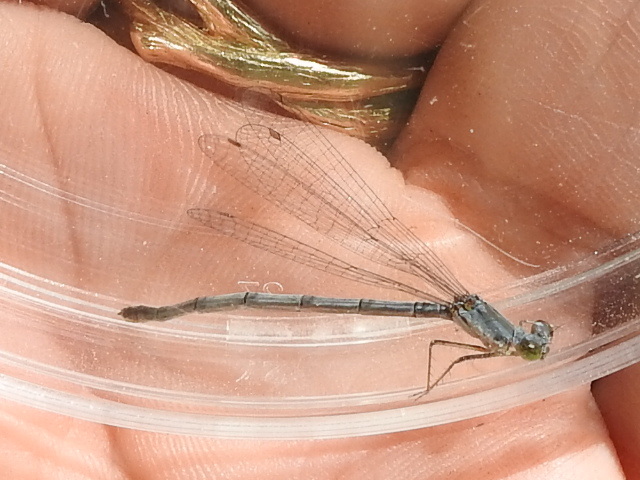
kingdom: Animalia
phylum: Arthropoda
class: Insecta
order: Odonata
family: Coenagrionidae
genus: Ischnura
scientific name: Ischnura posita
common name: Fragile forktail
